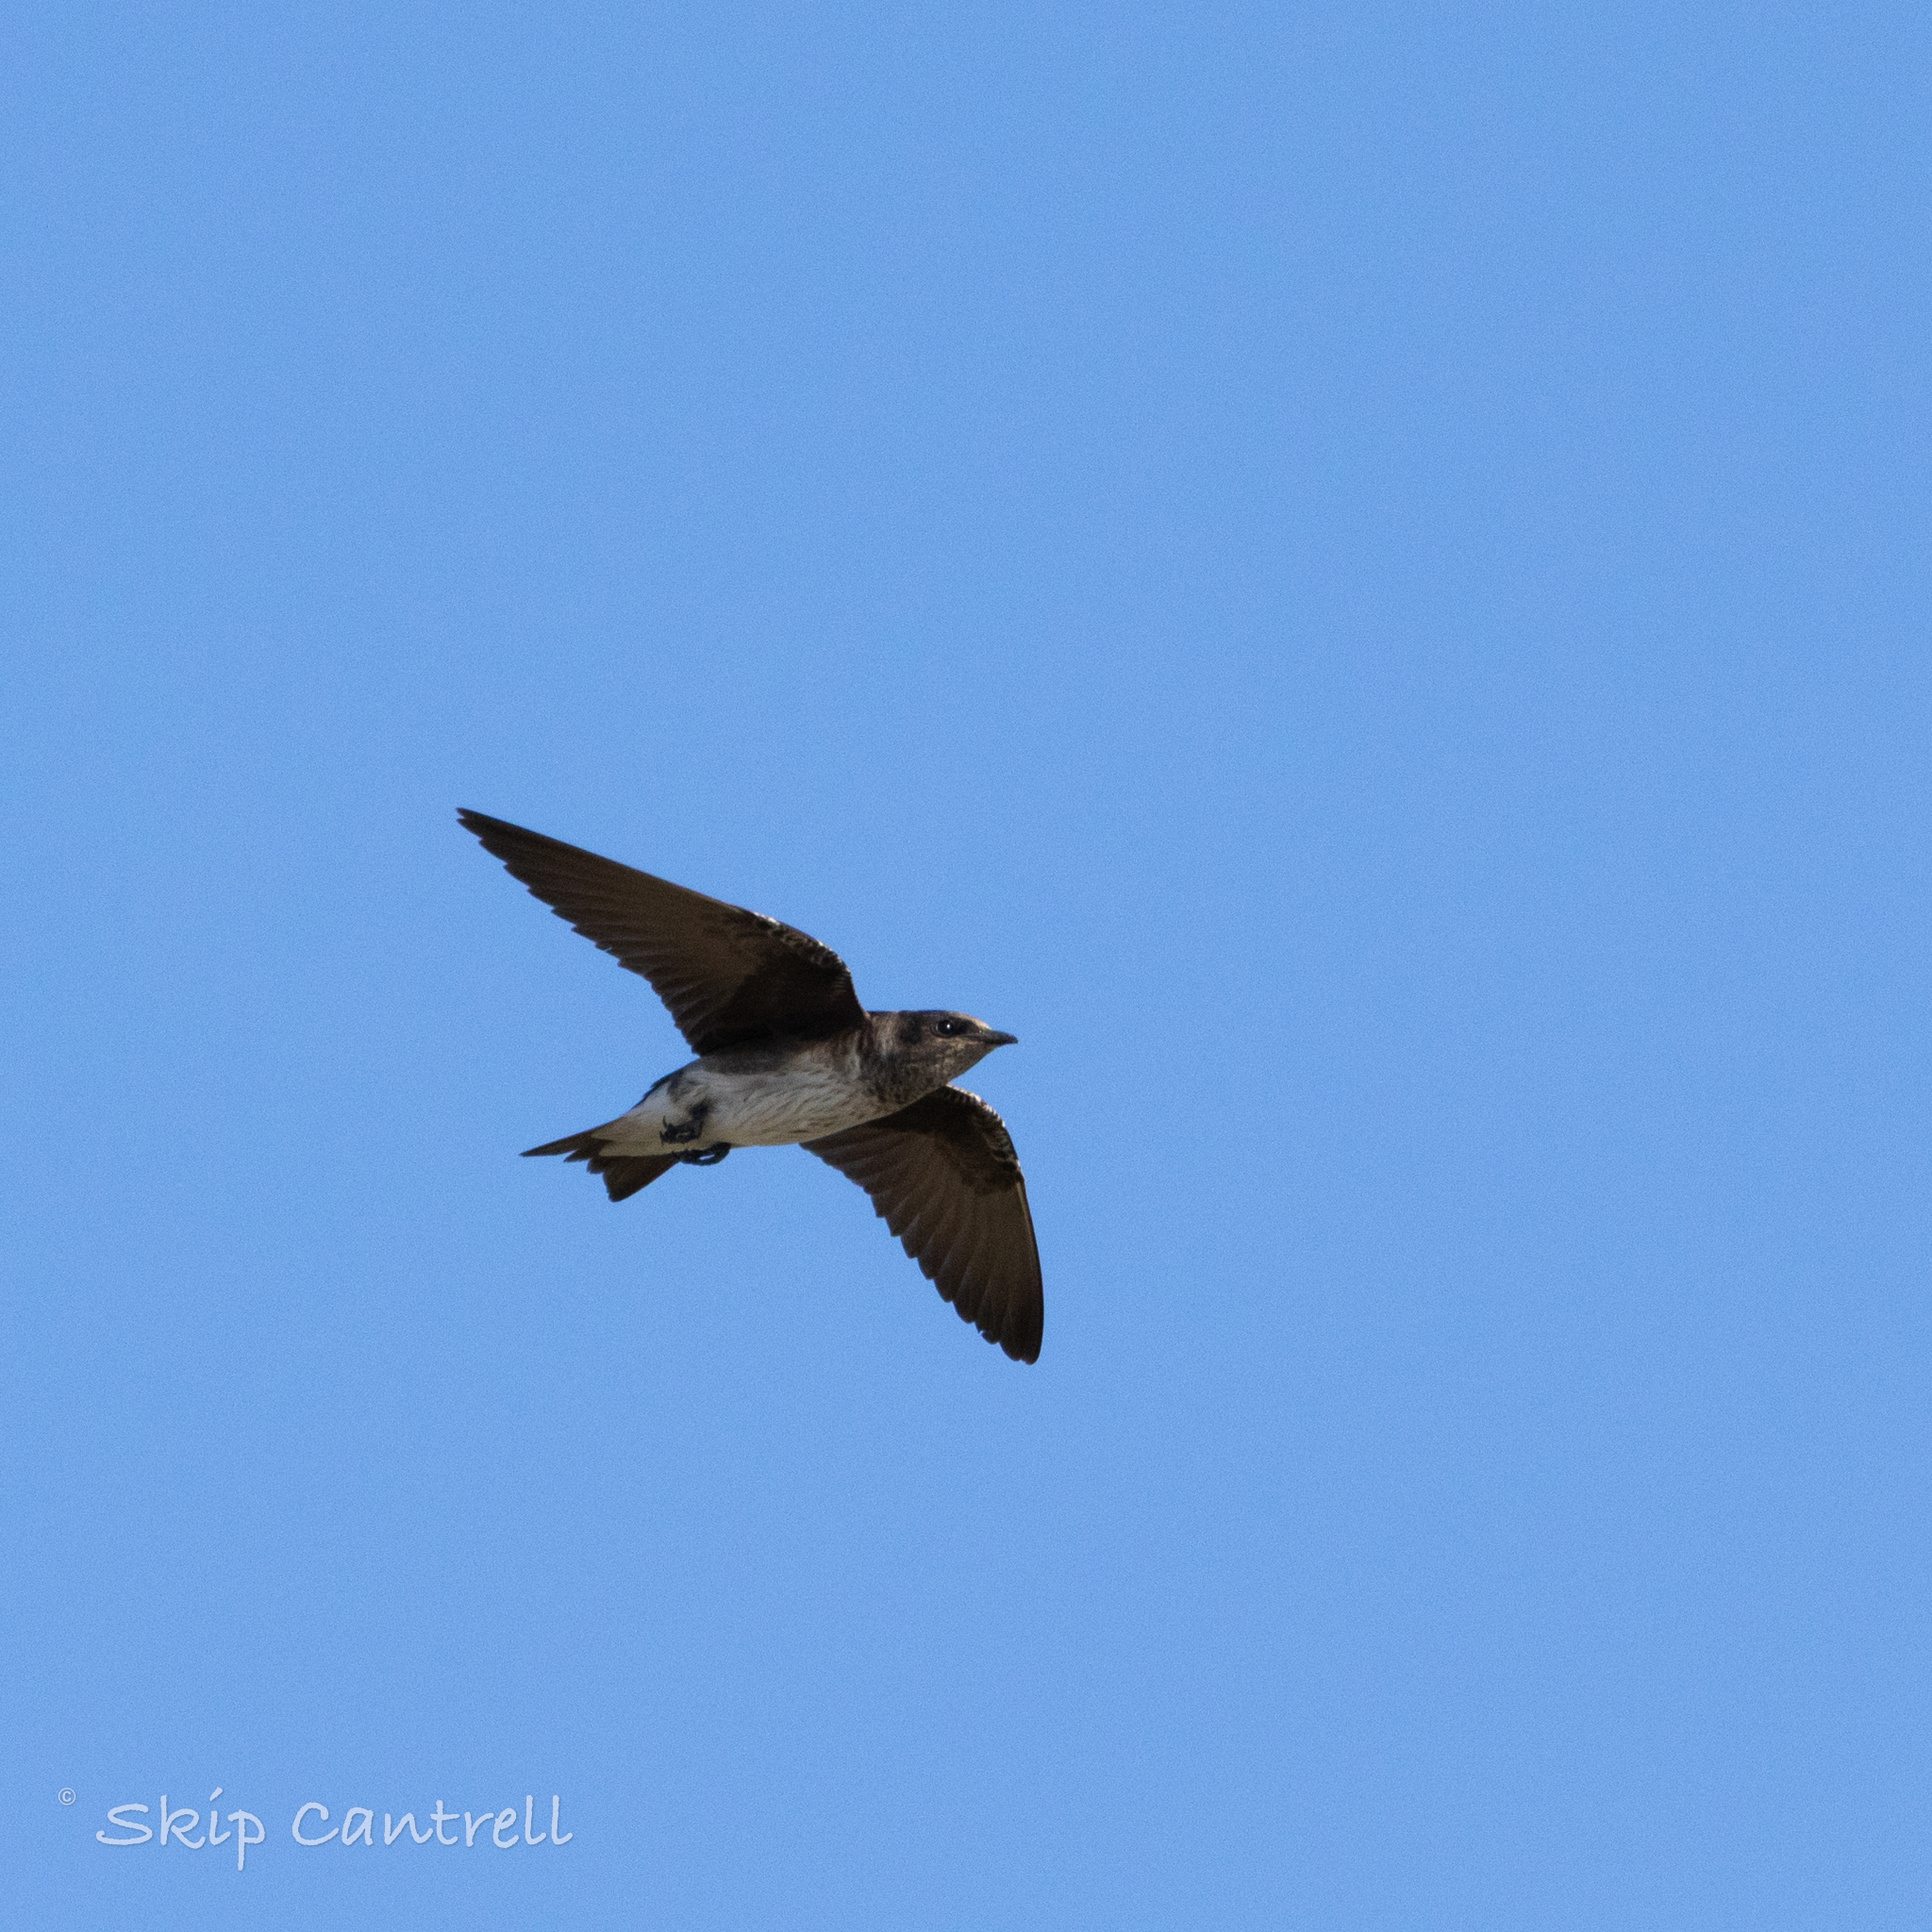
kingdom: Animalia
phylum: Chordata
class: Aves
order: Passeriformes
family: Hirundinidae
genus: Progne
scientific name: Progne subis
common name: Purple martin
